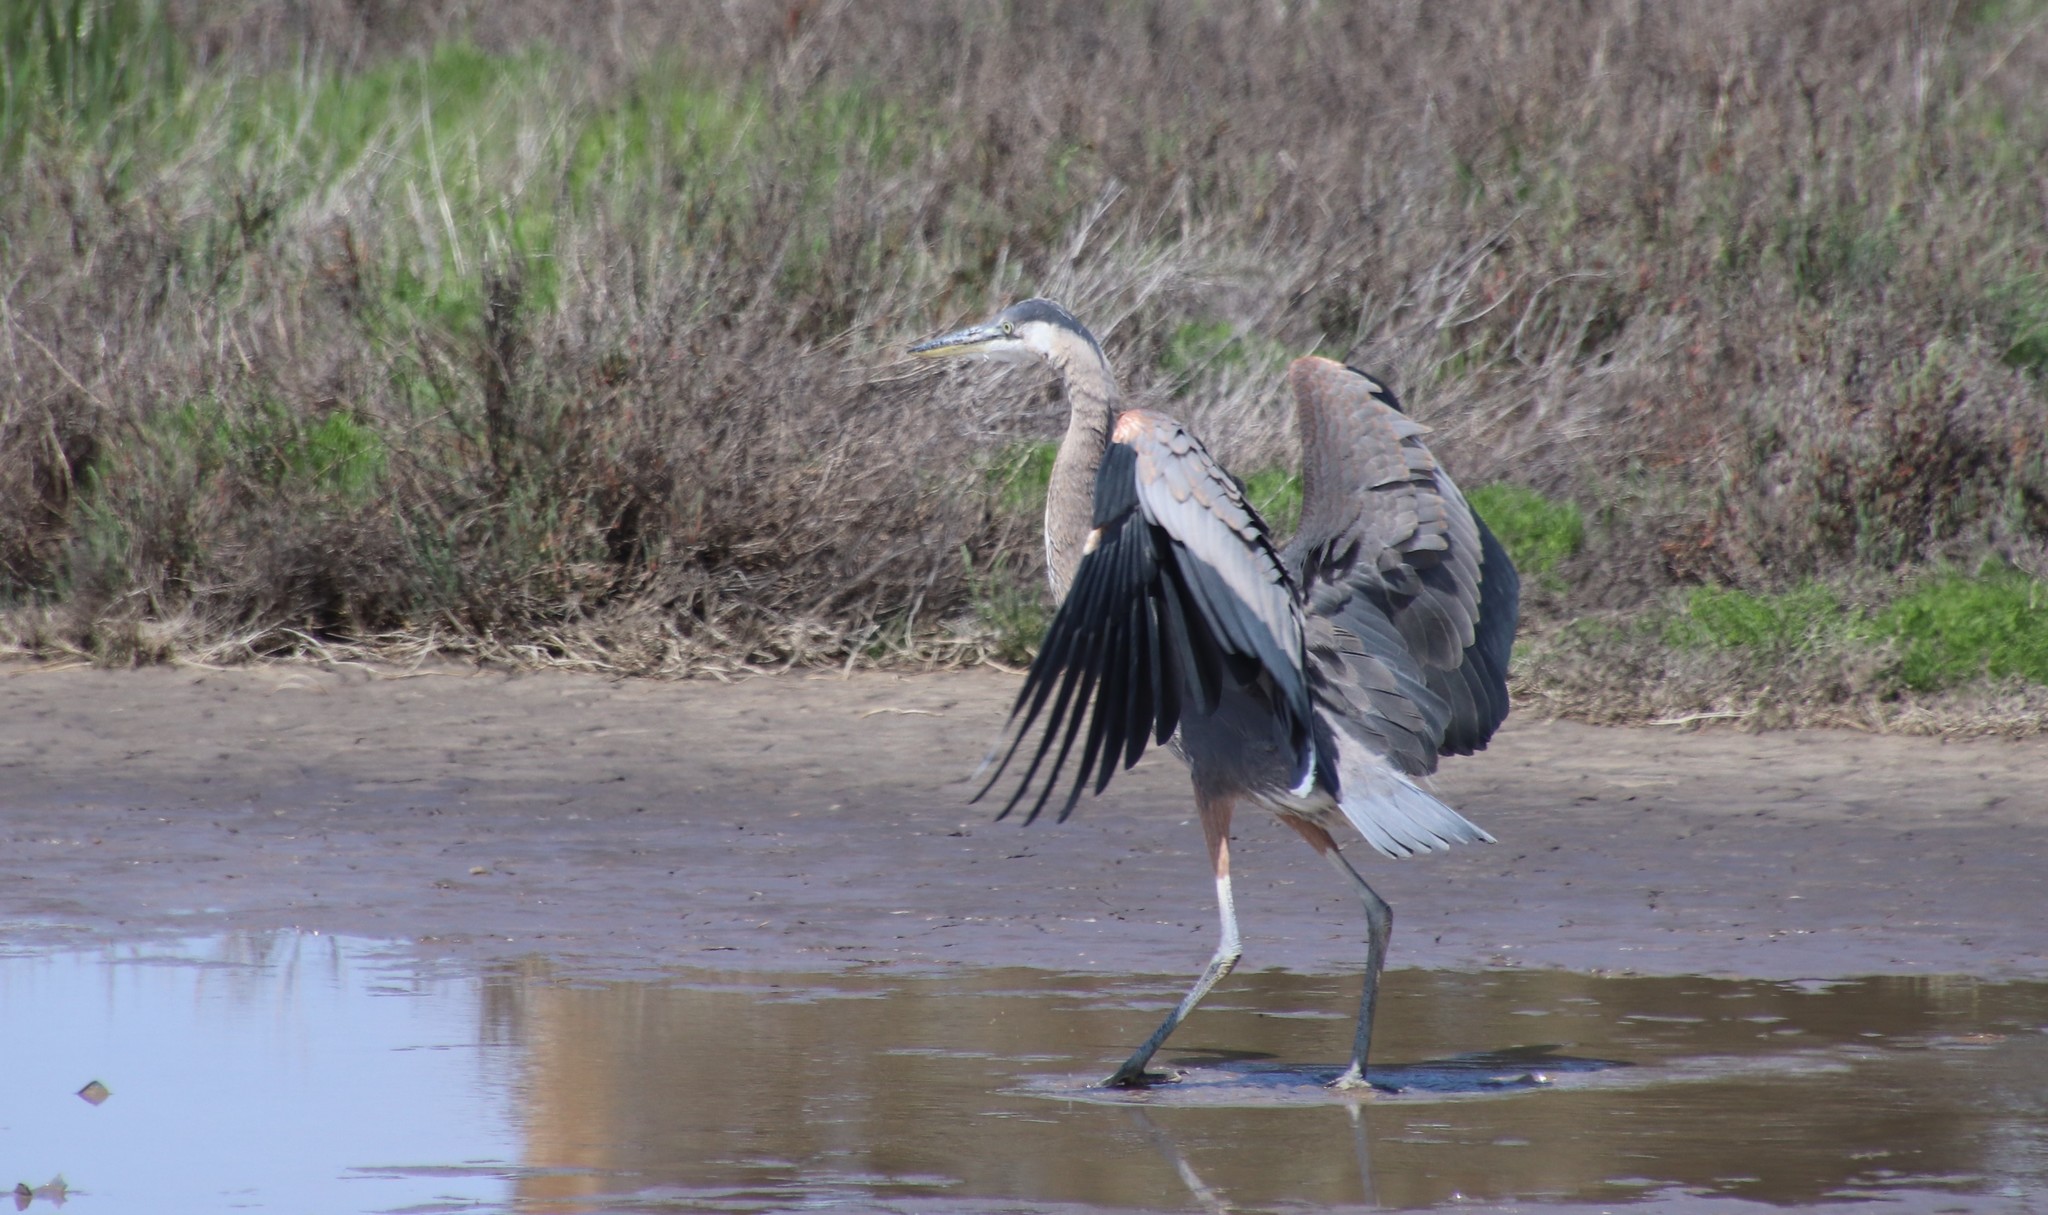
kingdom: Animalia
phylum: Chordata
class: Aves
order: Pelecaniformes
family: Ardeidae
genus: Ardea
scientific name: Ardea herodias
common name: Great blue heron
